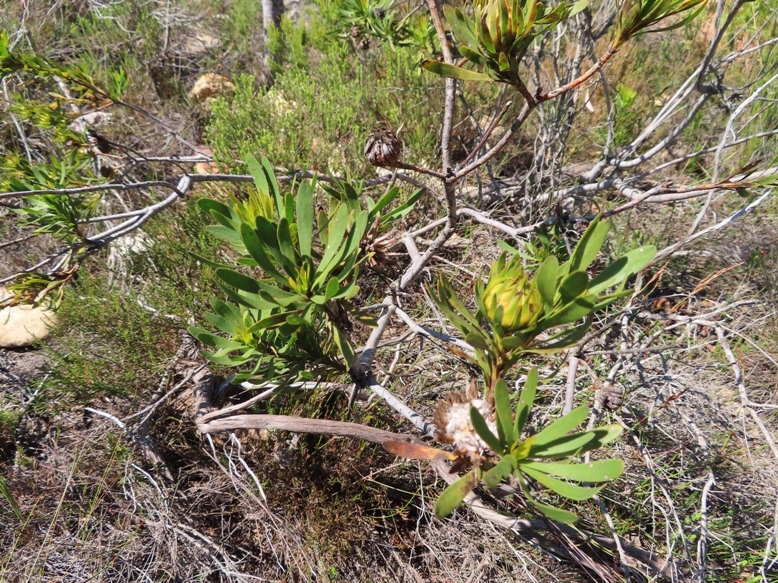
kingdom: Plantae
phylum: Tracheophyta
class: Magnoliopsida
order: Proteales
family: Proteaceae
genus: Aulax
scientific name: Aulax umbellata
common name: Broad-leaf featherbush
